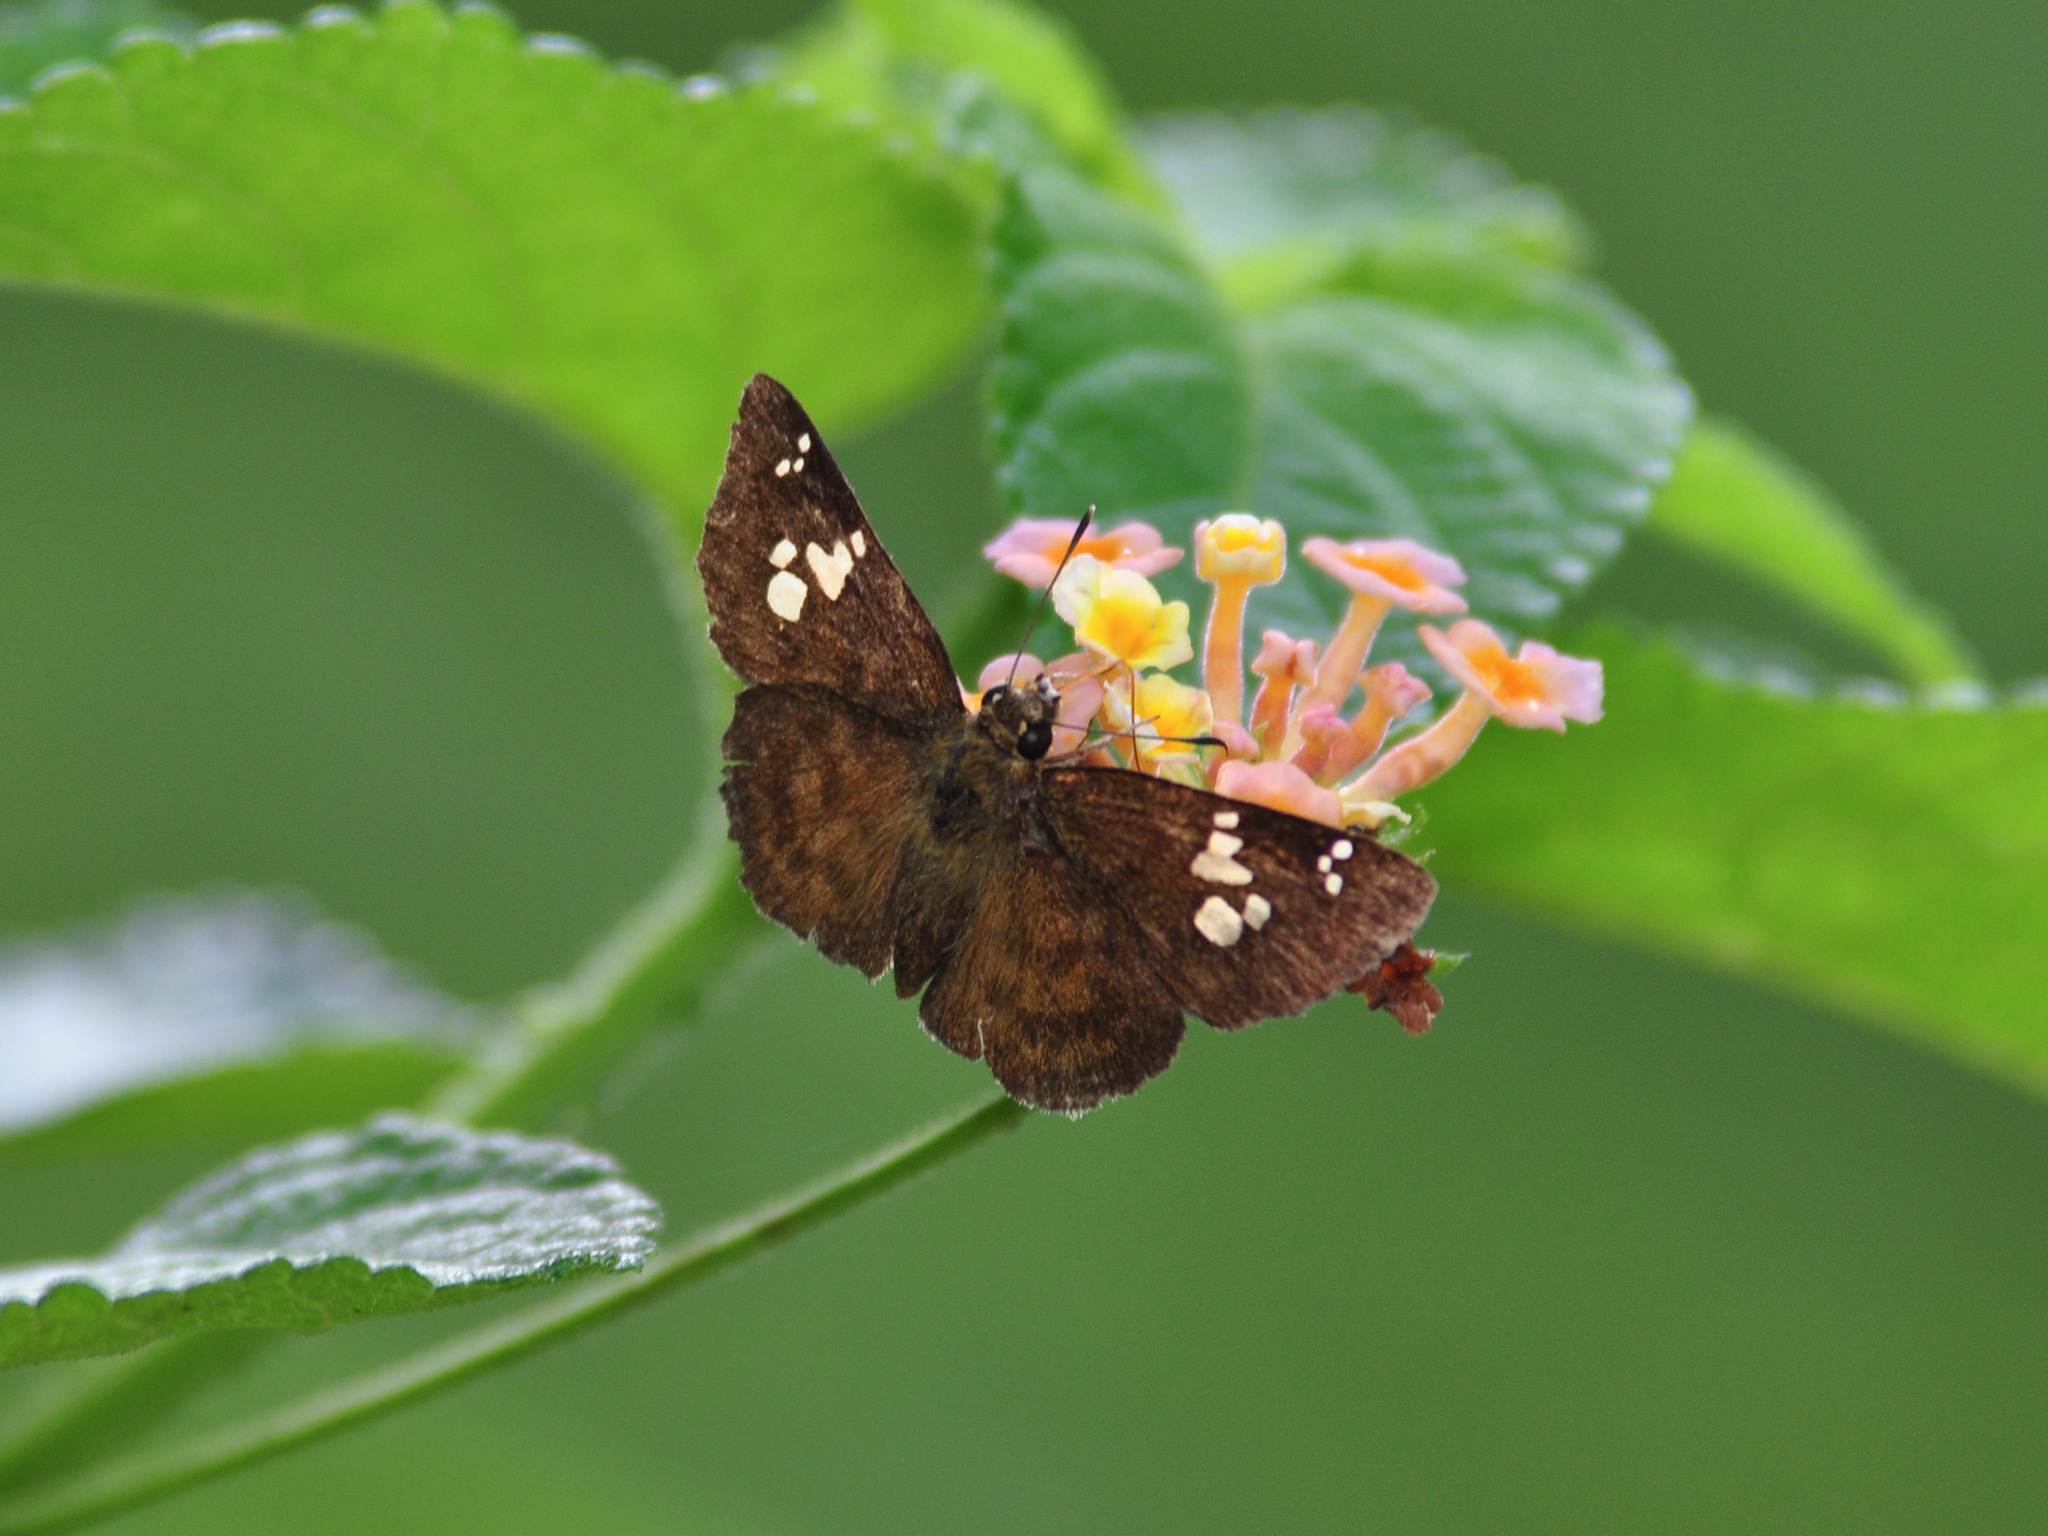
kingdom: Animalia
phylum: Arthropoda
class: Insecta
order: Lepidoptera
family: Hesperiidae
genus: Pseudocoladenia
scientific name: Pseudocoladenia dan
